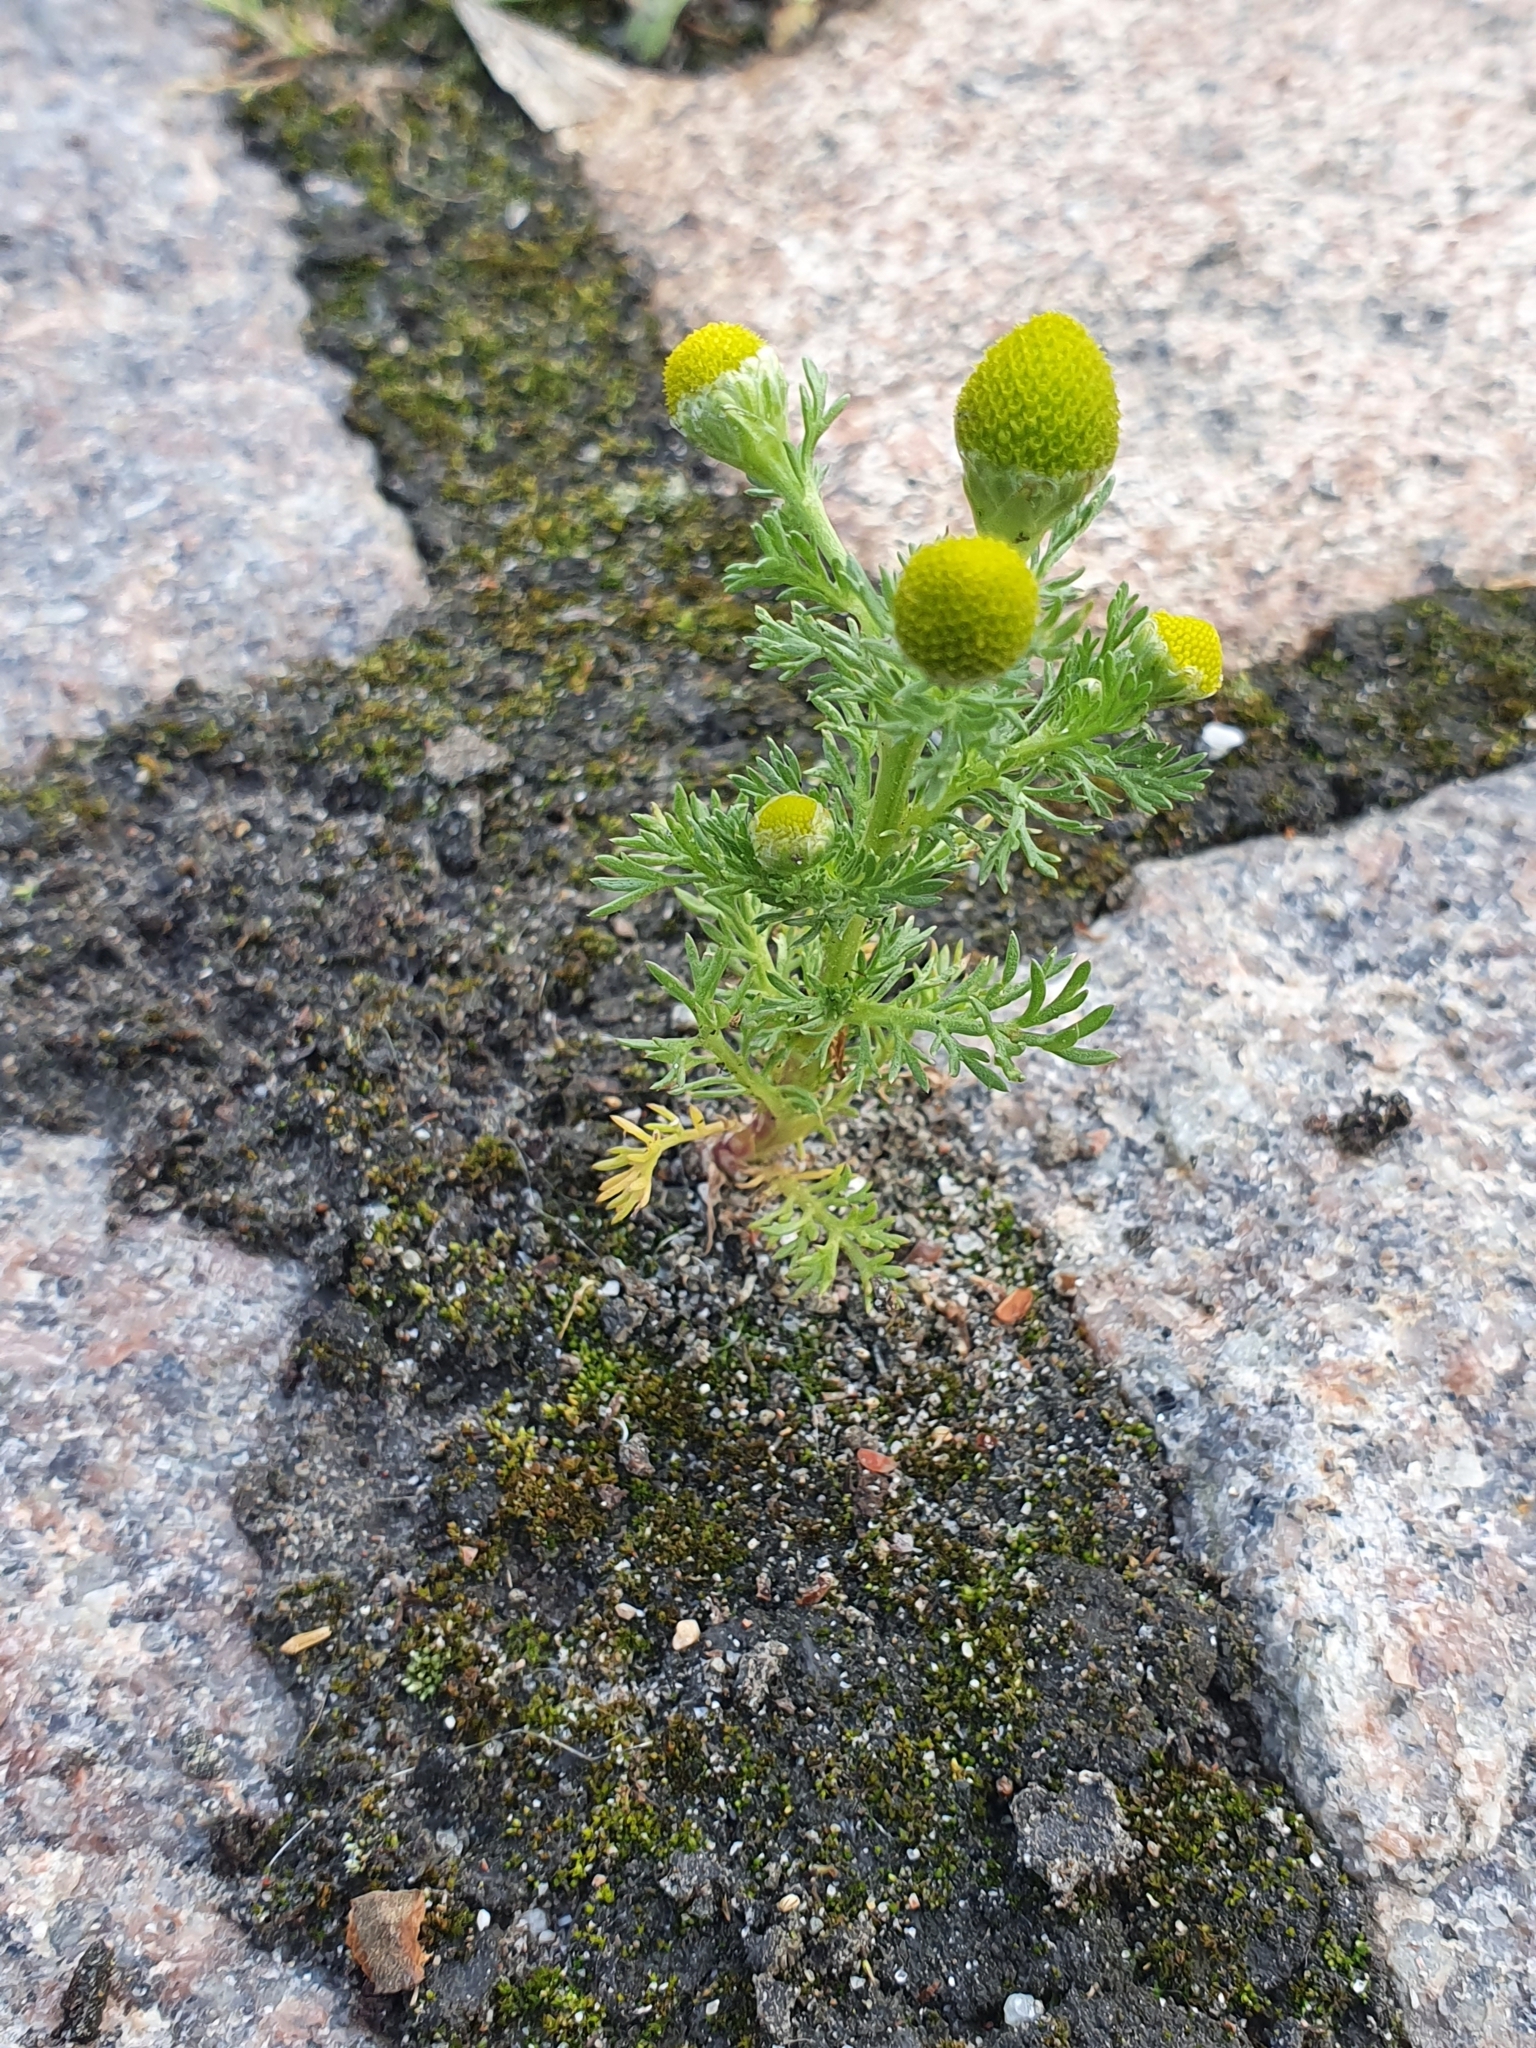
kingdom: Plantae
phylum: Tracheophyta
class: Magnoliopsida
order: Asterales
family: Asteraceae
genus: Matricaria
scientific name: Matricaria discoidea
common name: Disc mayweed
